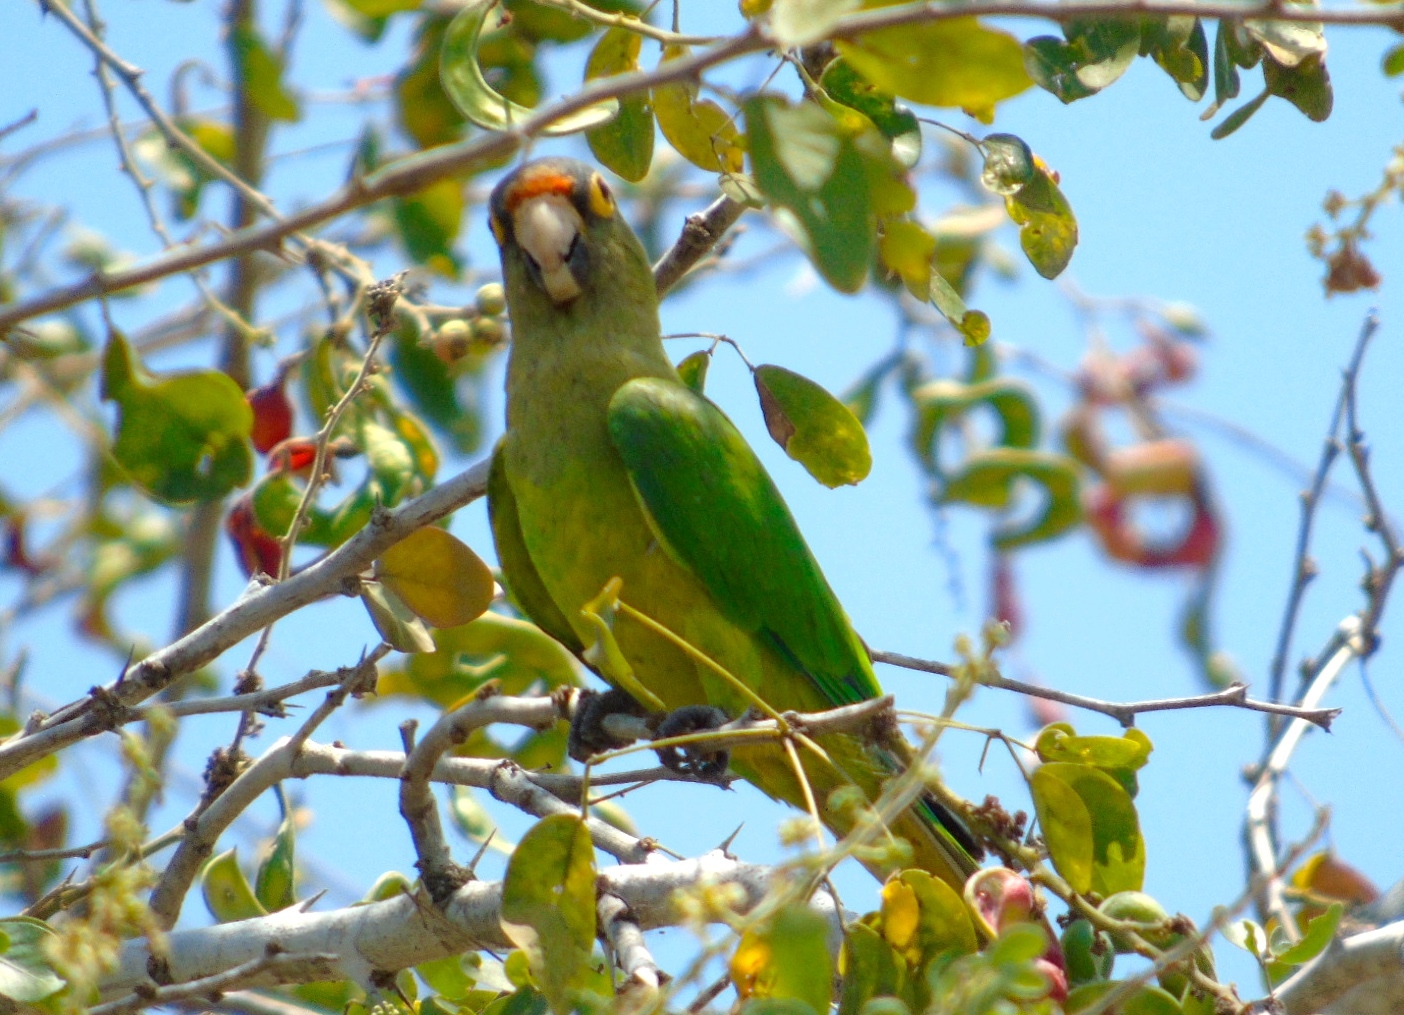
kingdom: Animalia
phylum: Chordata
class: Aves
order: Psittaciformes
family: Psittacidae
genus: Aratinga
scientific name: Aratinga canicularis
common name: Orange-fronted parakeet
